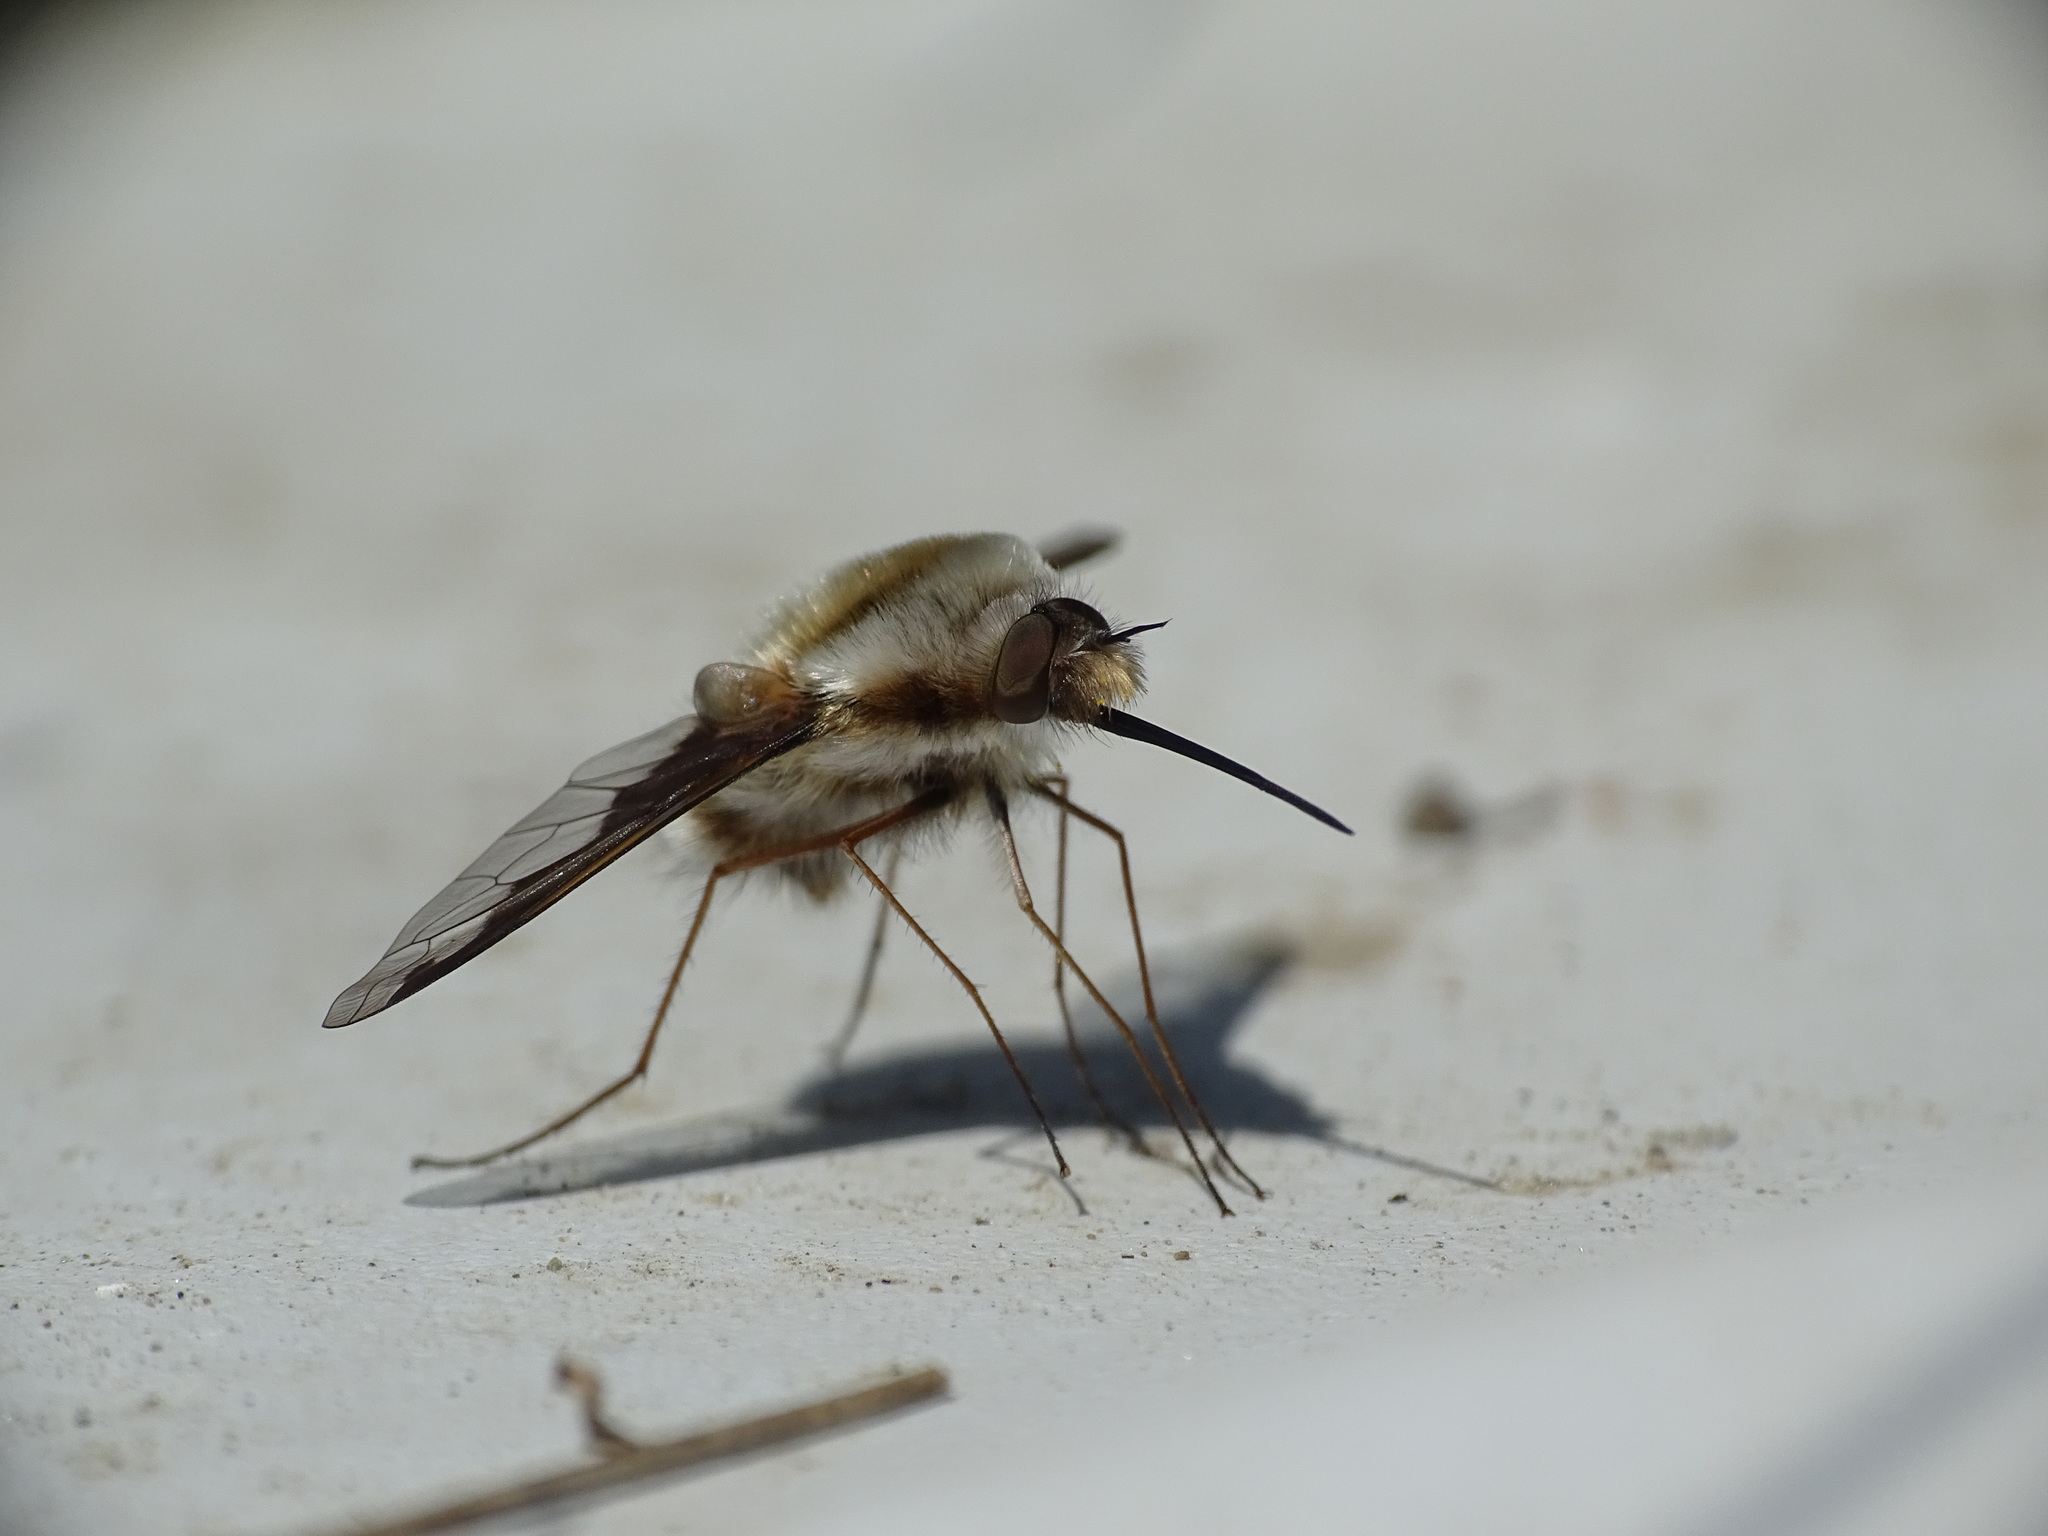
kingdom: Animalia
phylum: Arthropoda
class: Insecta
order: Diptera
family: Bombyliidae
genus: Bombylius
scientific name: Bombylius major
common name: Bee fly
